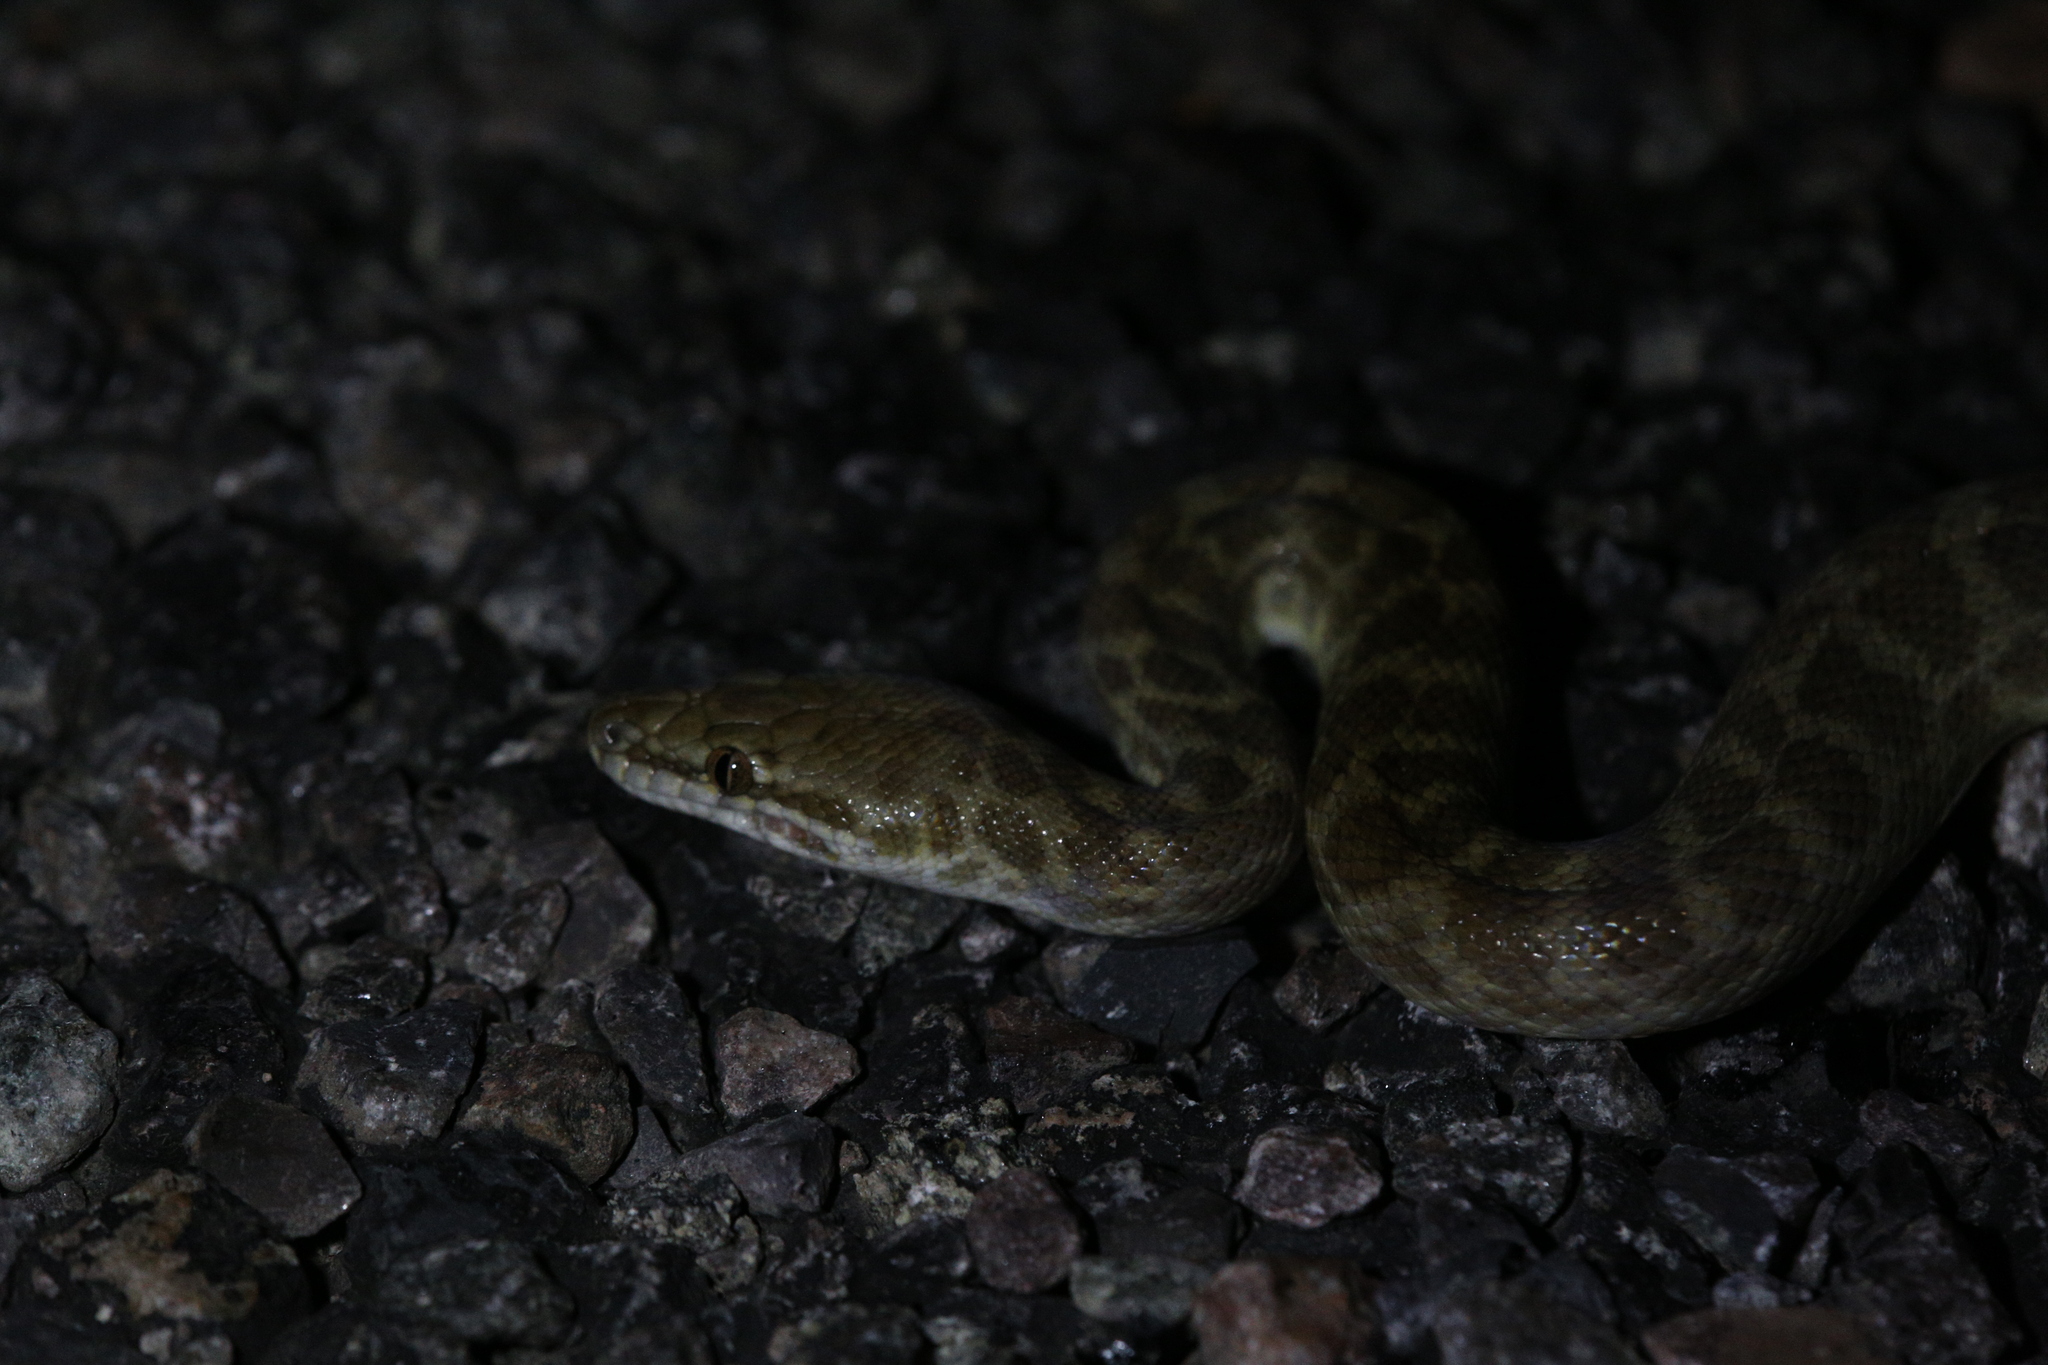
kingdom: Animalia
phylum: Chordata
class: Squamata
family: Pythonidae
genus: Antaresia
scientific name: Antaresia childreni
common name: Children's python
